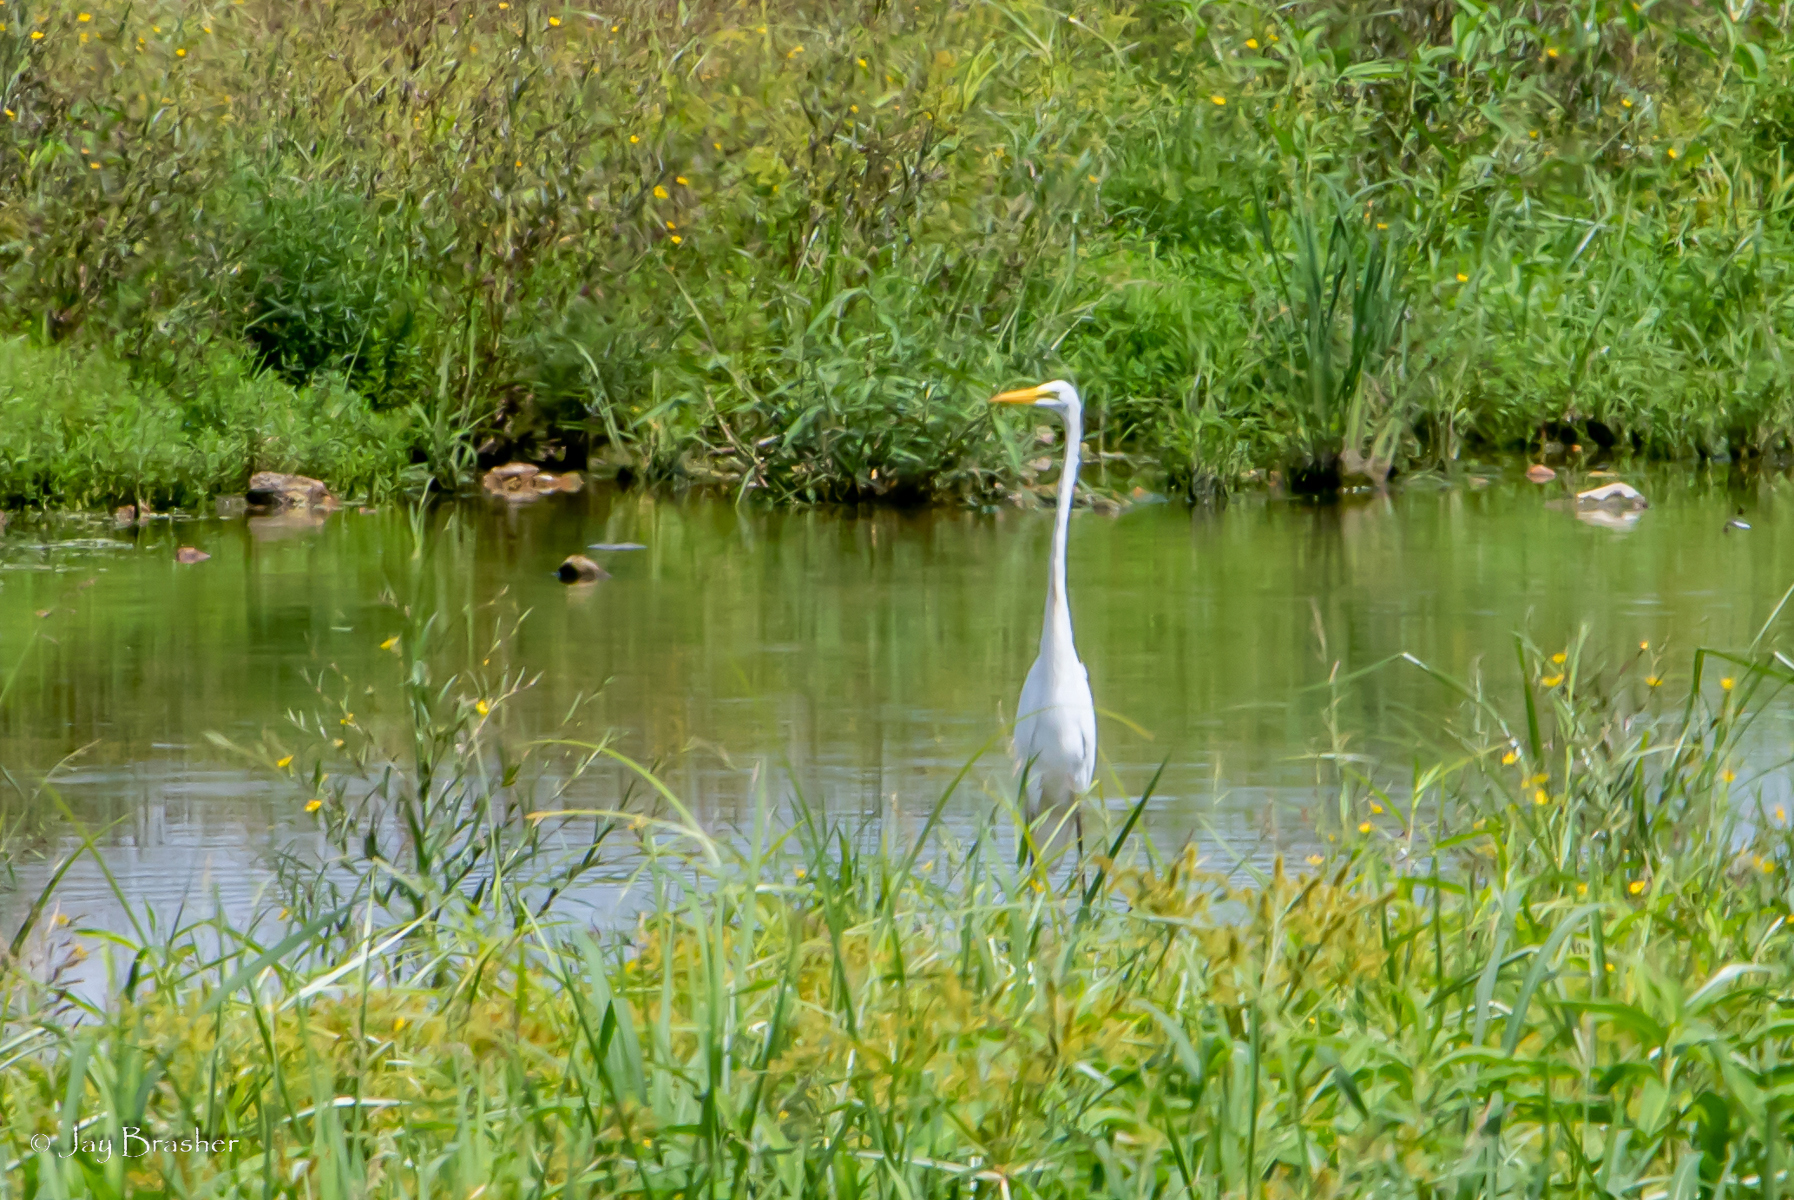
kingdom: Animalia
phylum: Chordata
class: Aves
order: Pelecaniformes
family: Ardeidae
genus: Ardea
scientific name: Ardea alba
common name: Great egret
